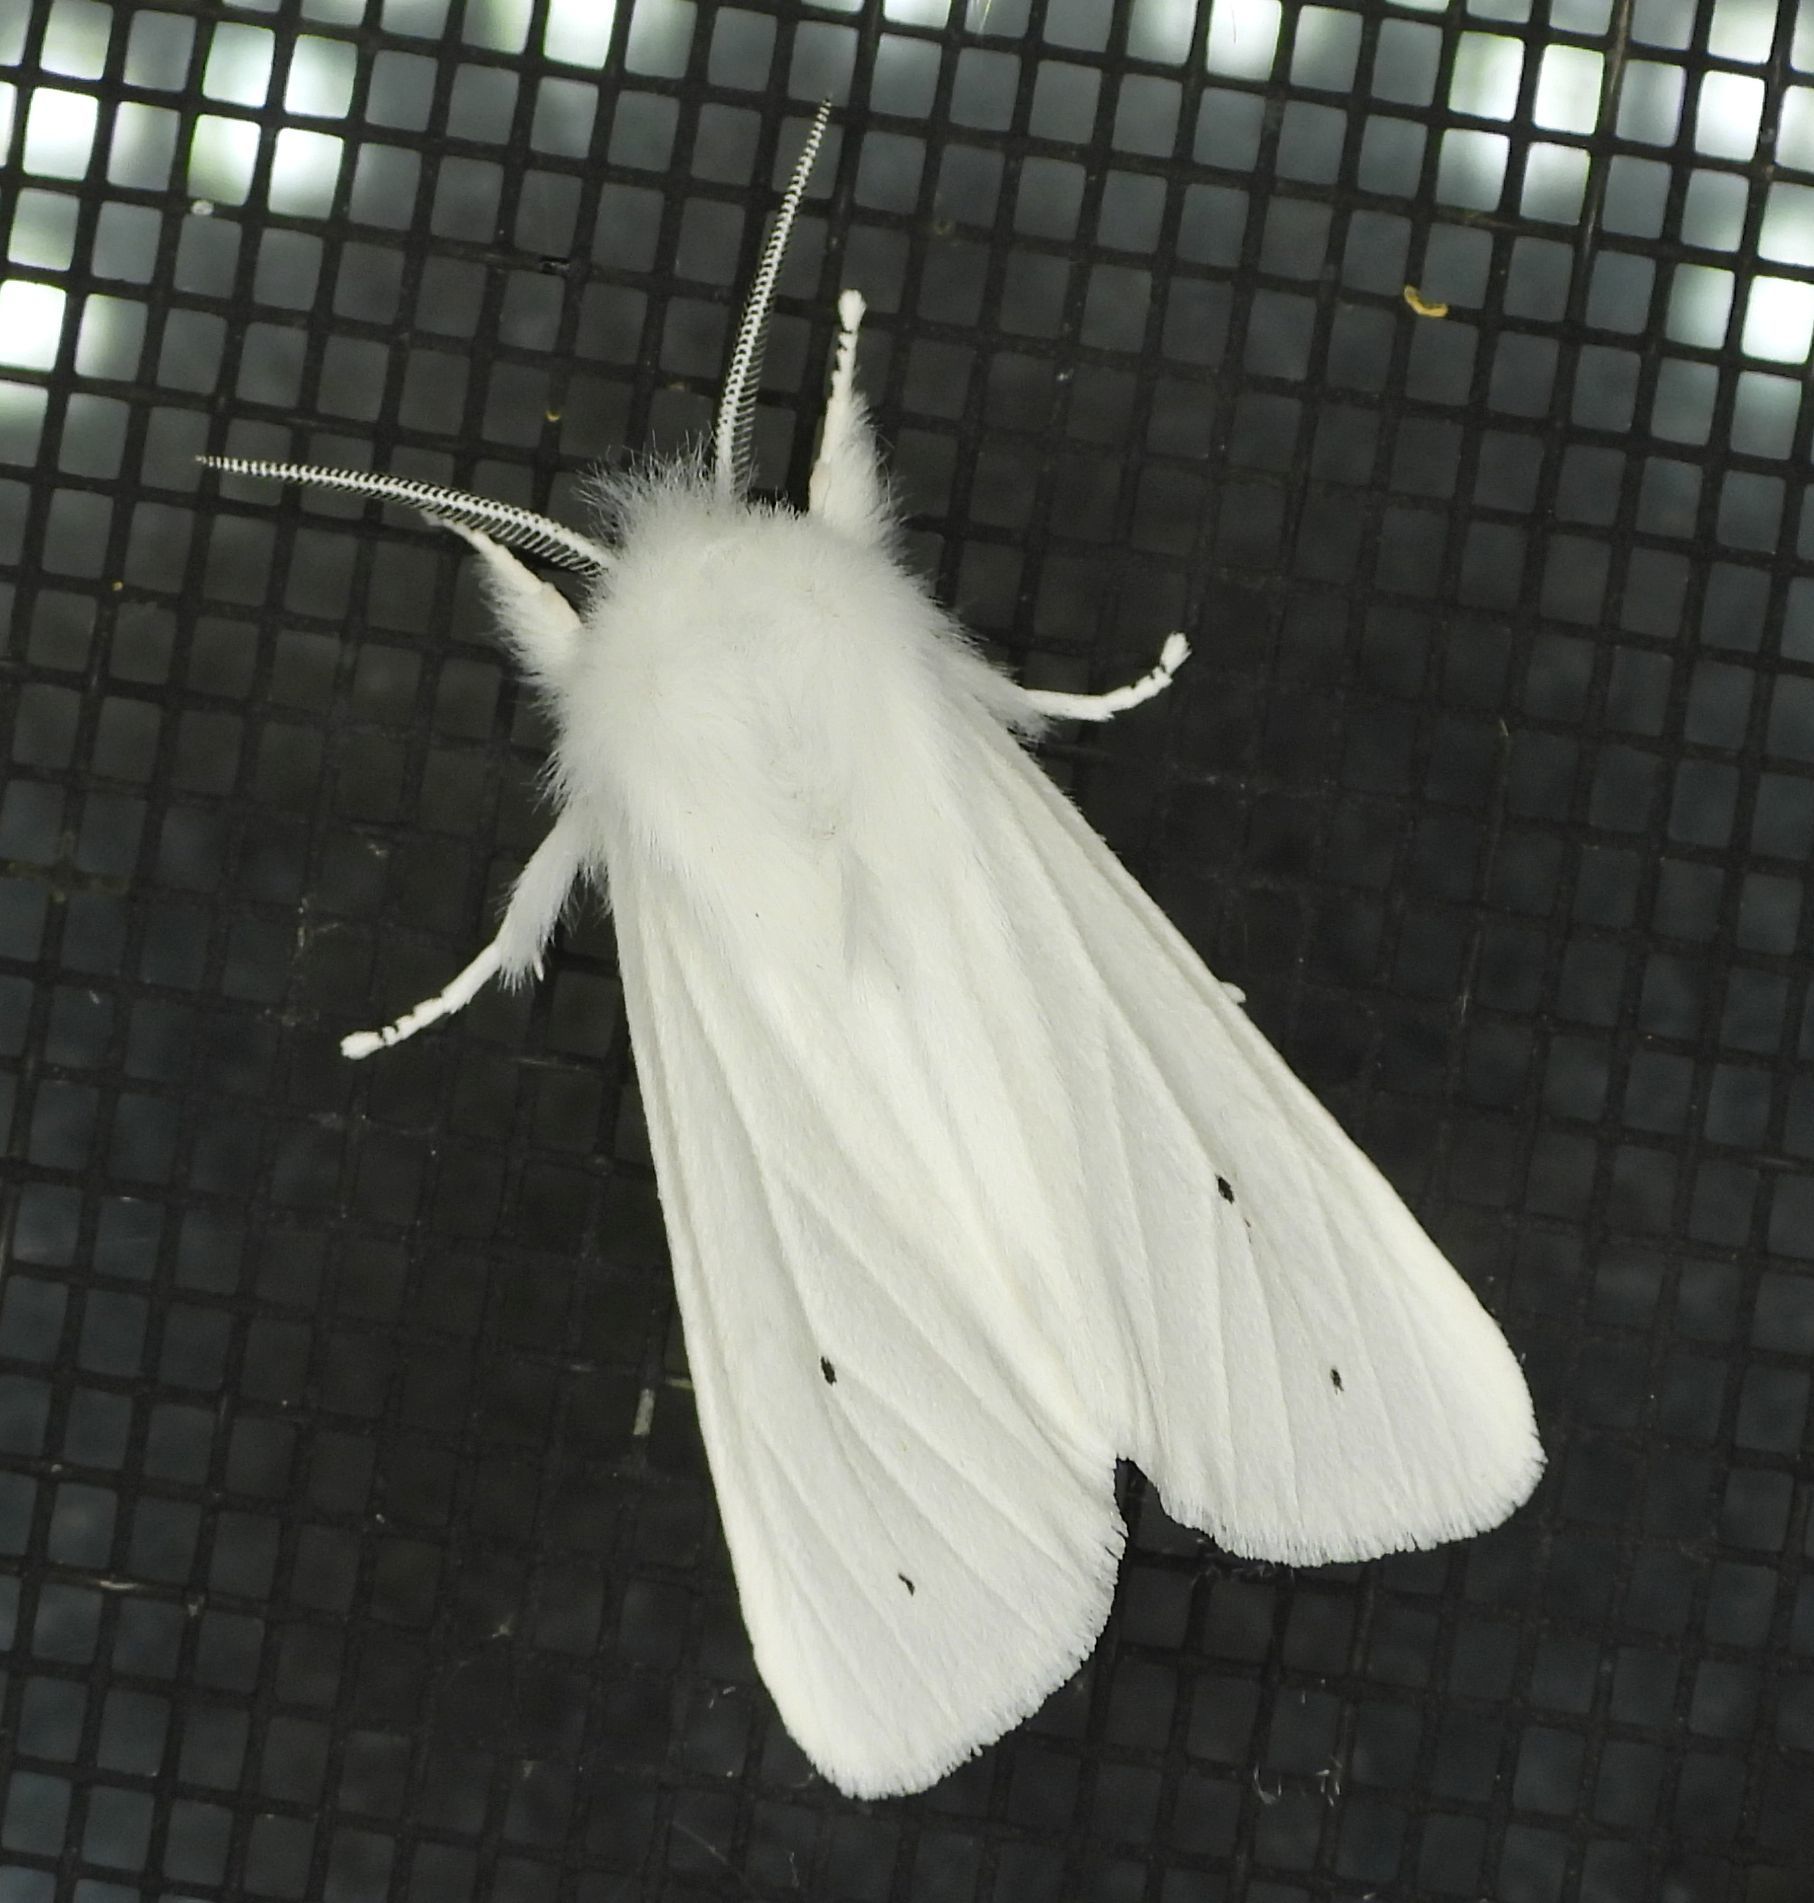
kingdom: Animalia
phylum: Arthropoda
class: Insecta
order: Lepidoptera
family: Erebidae
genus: Spilosoma
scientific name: Spilosoma virginica
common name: Virginia tiger moth
